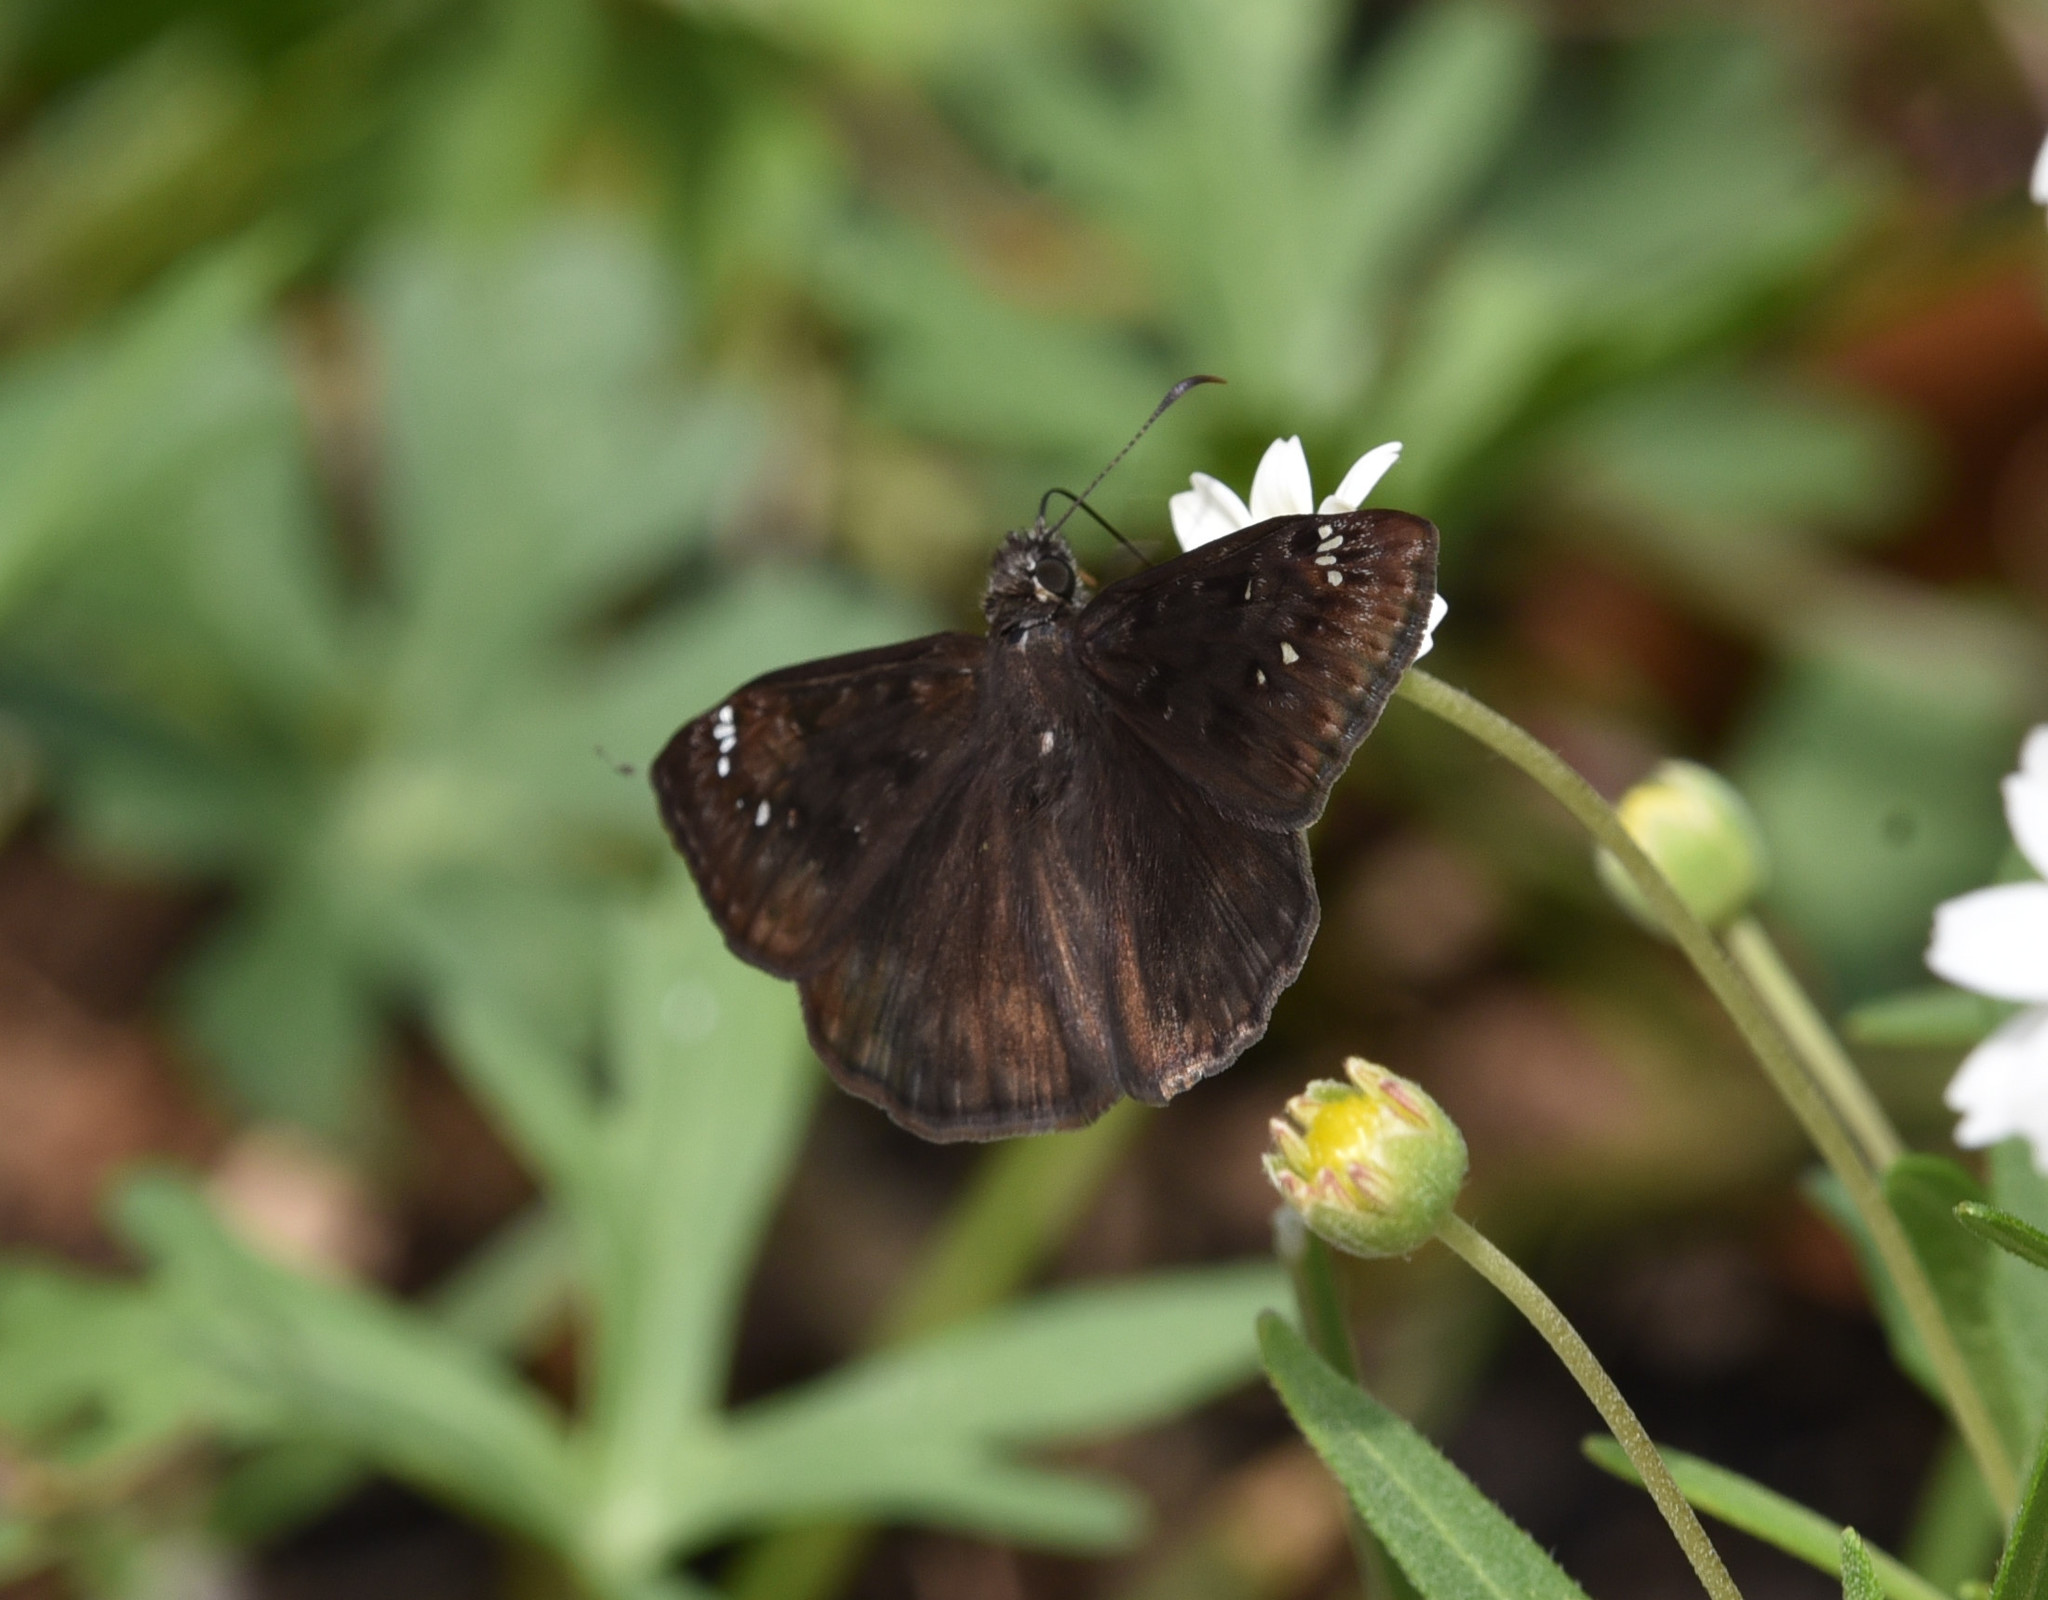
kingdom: Animalia
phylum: Arthropoda
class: Insecta
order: Lepidoptera
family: Hesperiidae
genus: Erynnis
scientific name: Erynnis horatius
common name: Horace's duskywing
